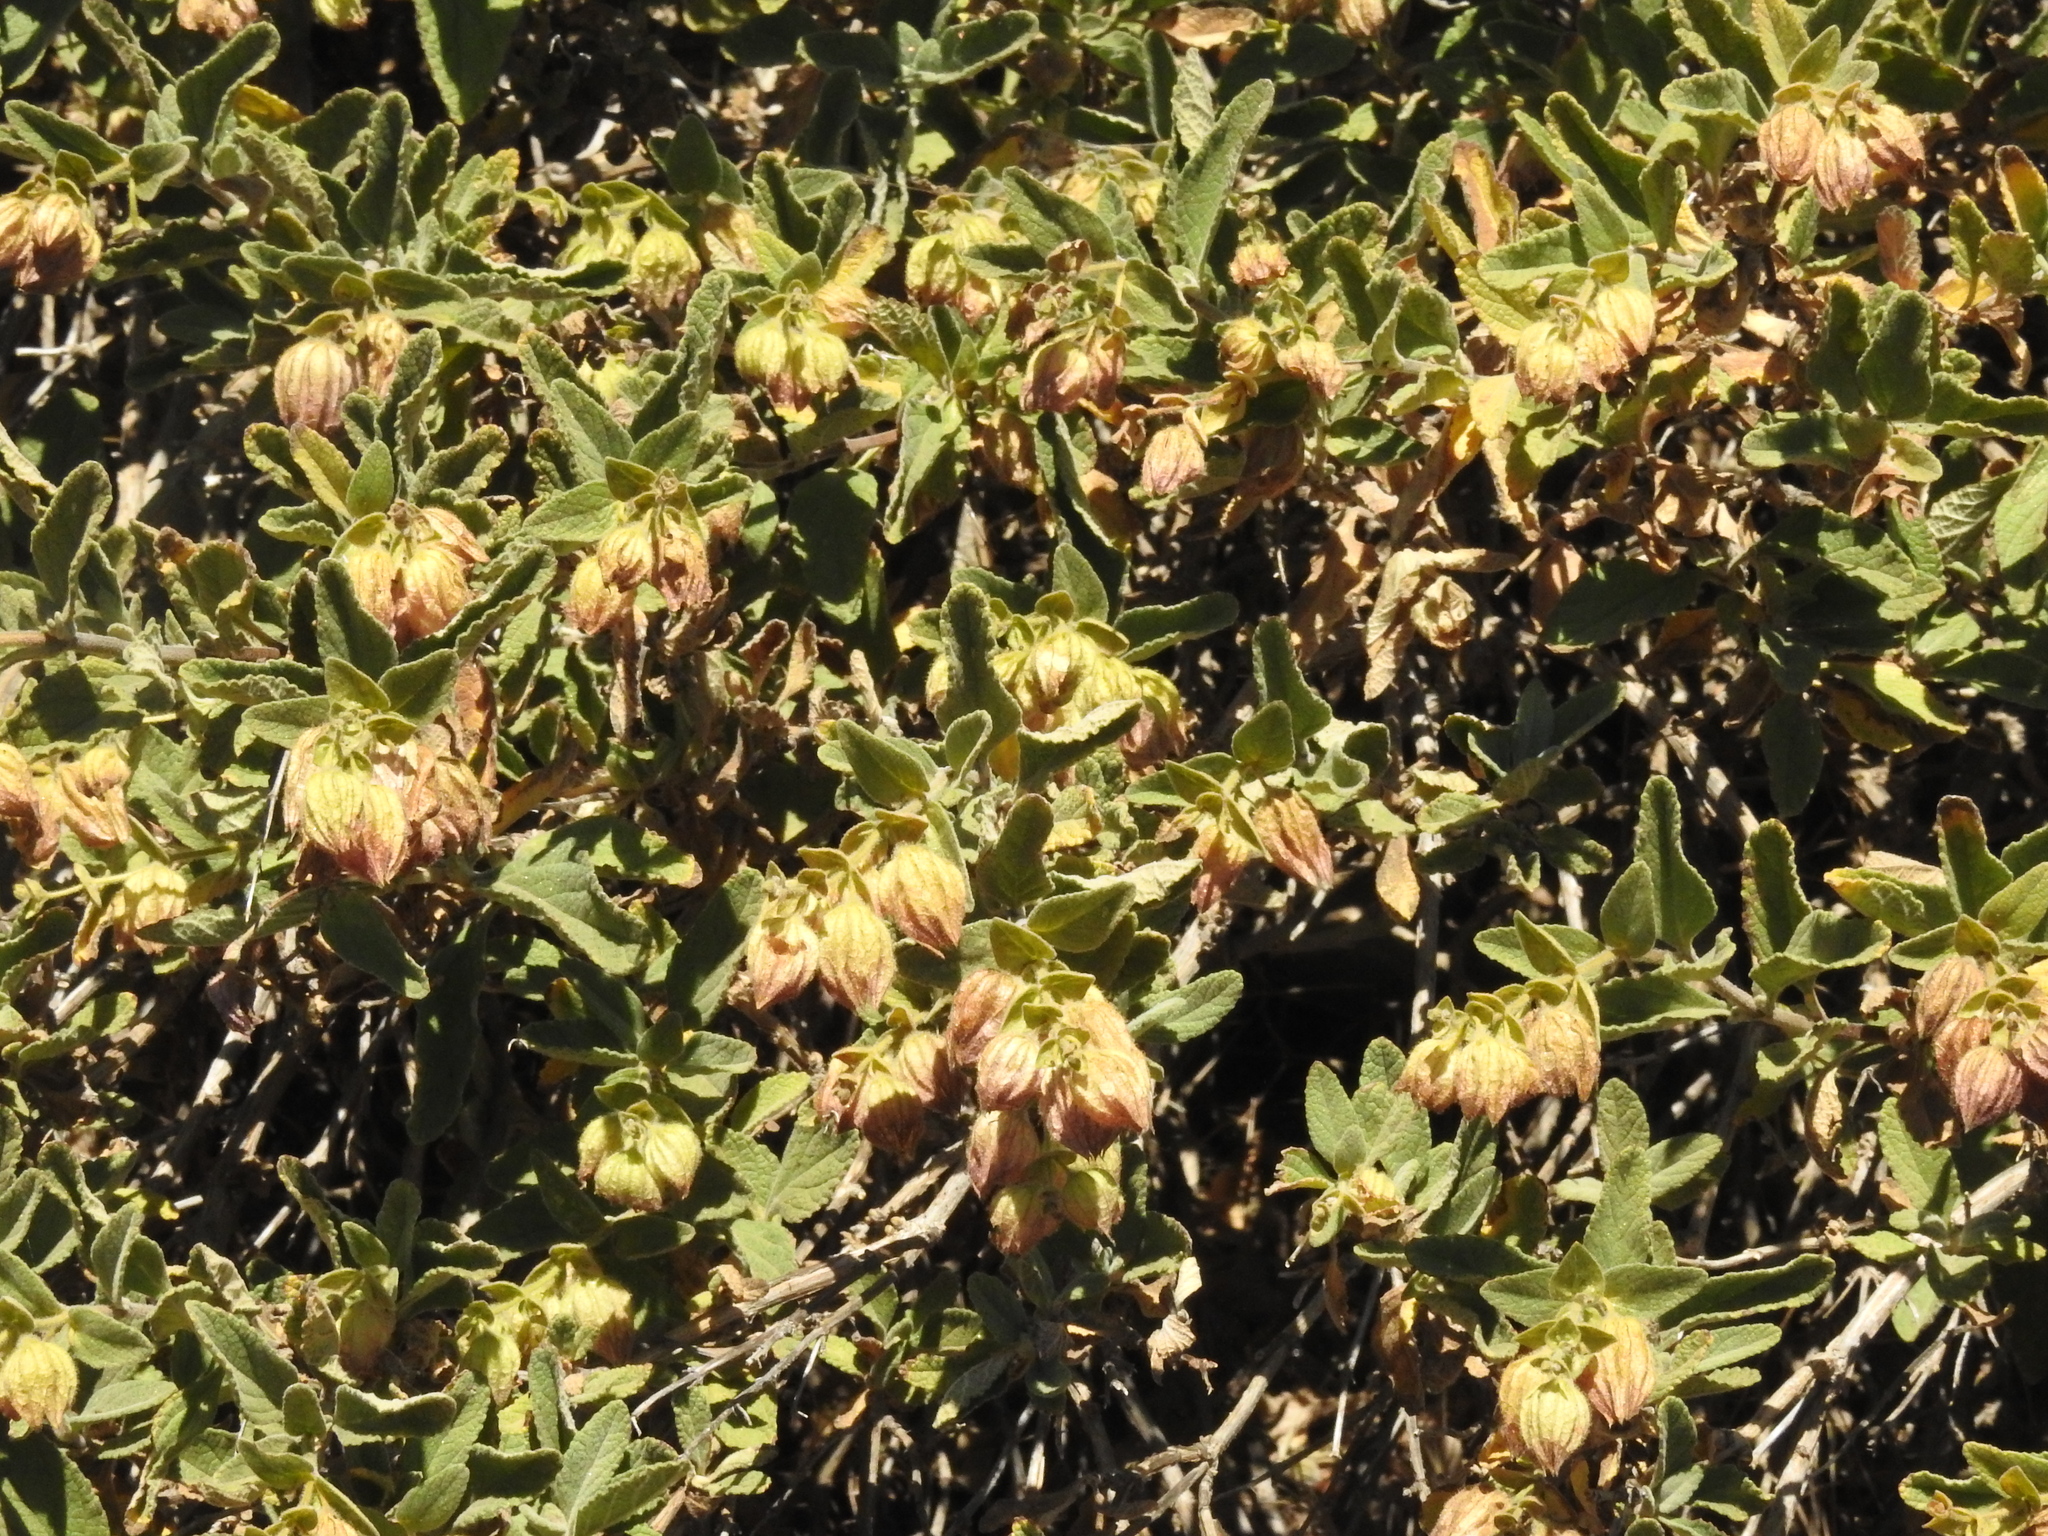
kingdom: Plantae
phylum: Tracheophyta
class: Magnoliopsida
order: Lamiales
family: Lamiaceae
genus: Lepechinia
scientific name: Lepechinia calycina
